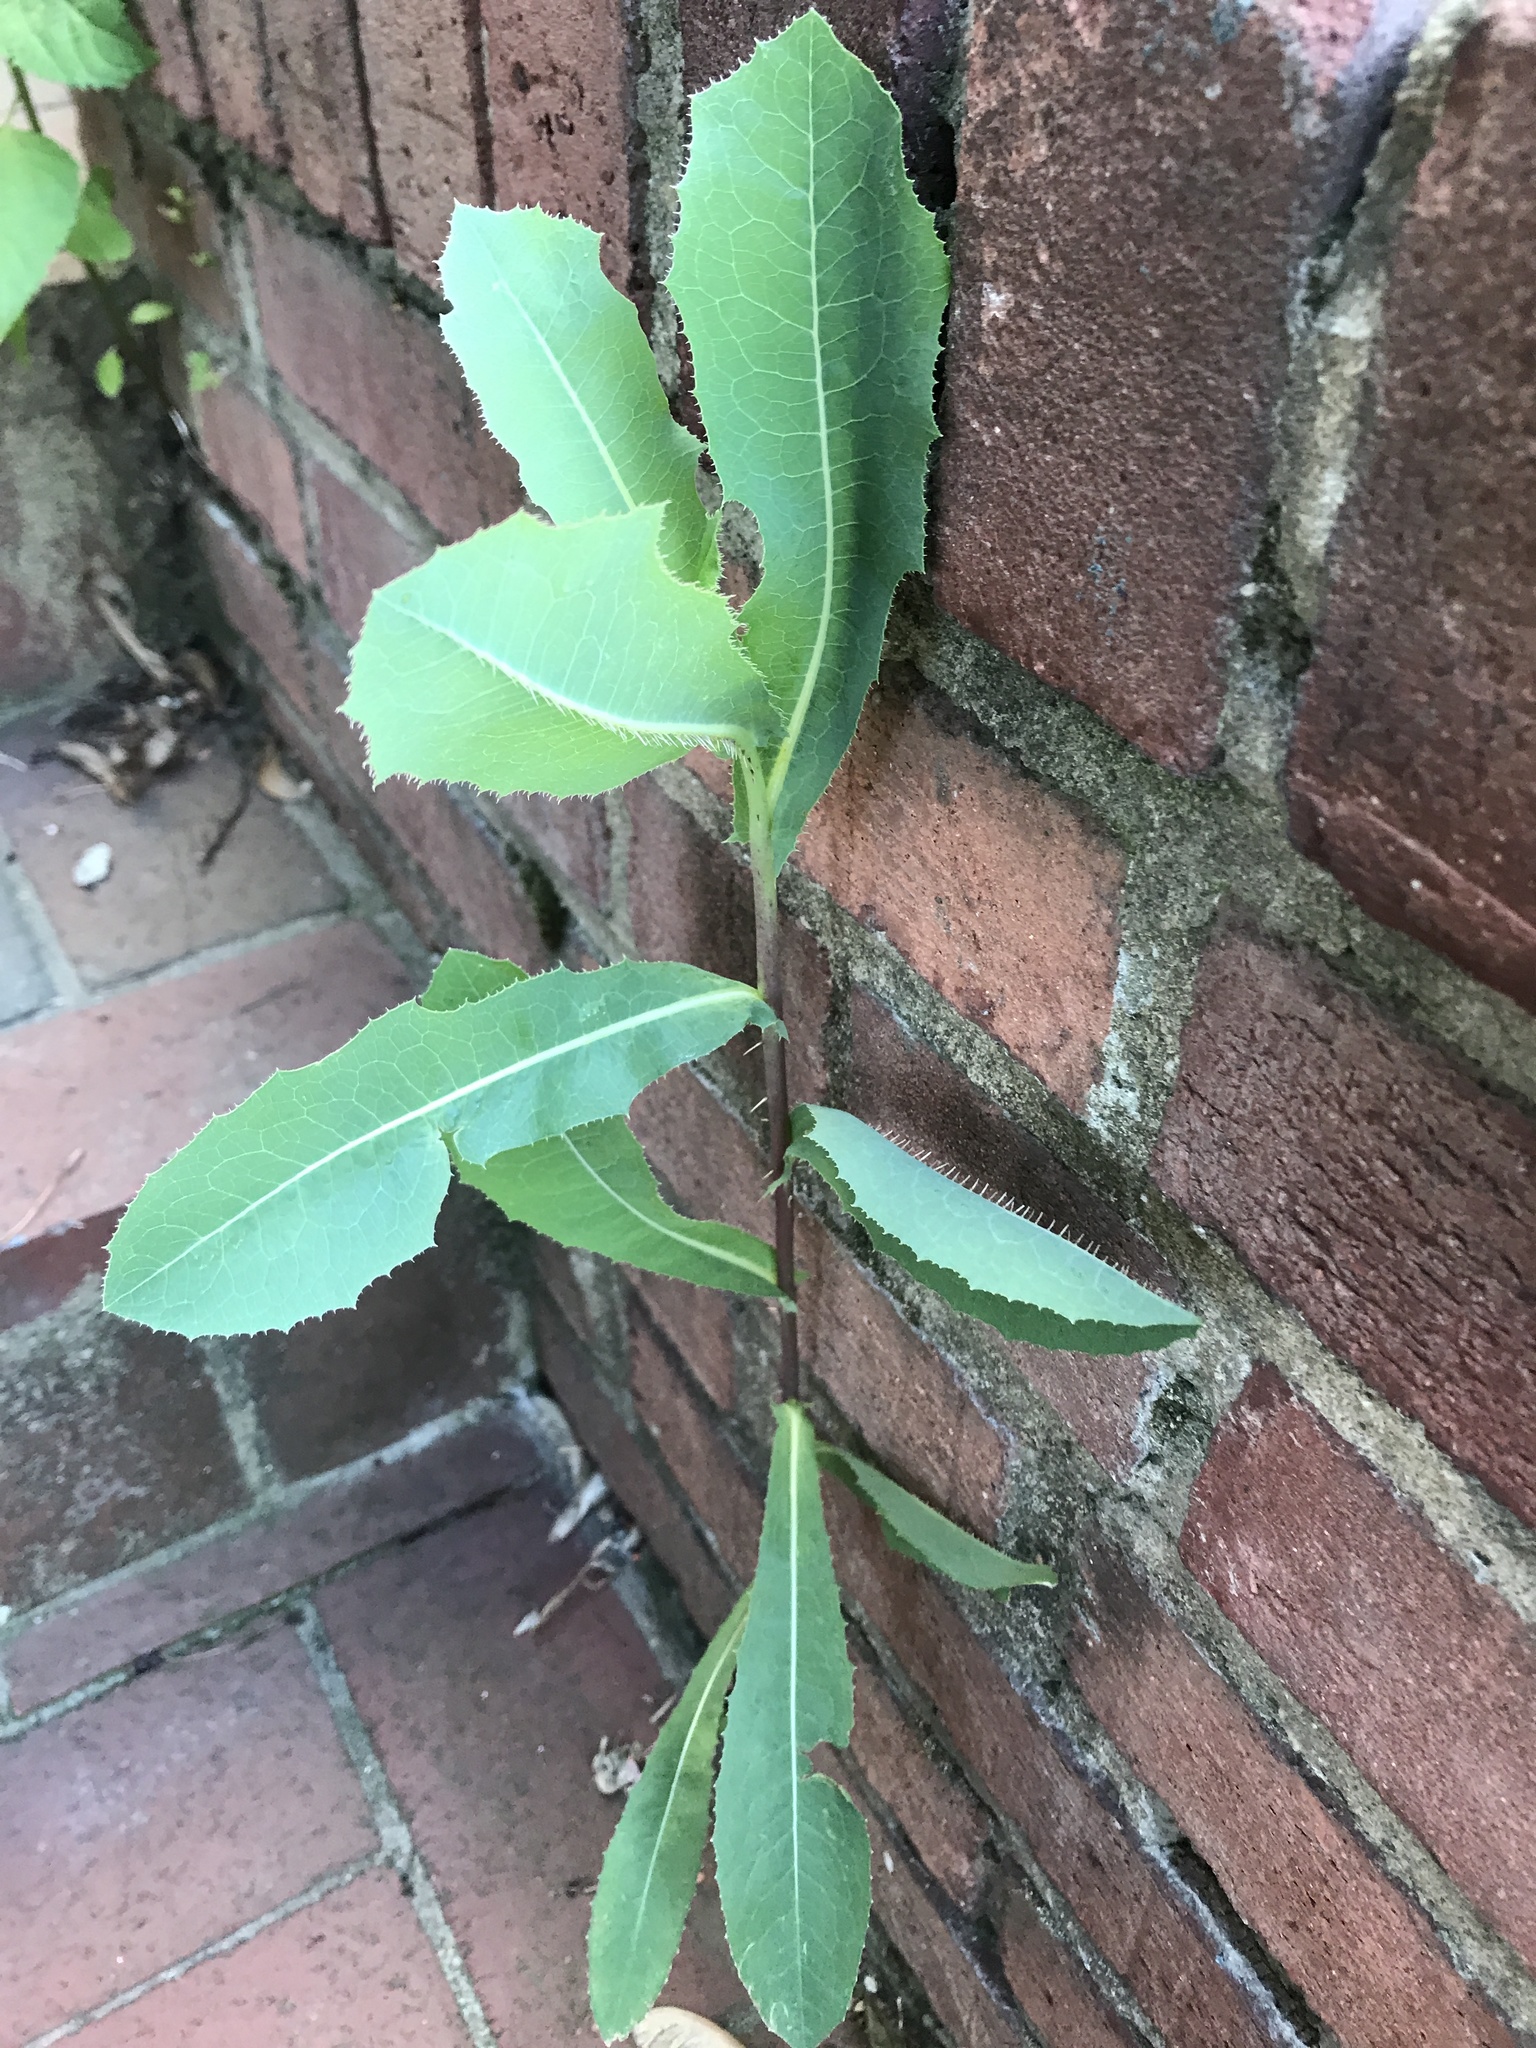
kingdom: Plantae
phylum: Tracheophyta
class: Magnoliopsida
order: Asterales
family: Asteraceae
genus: Lactuca
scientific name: Lactuca serriola
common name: Prickly lettuce
